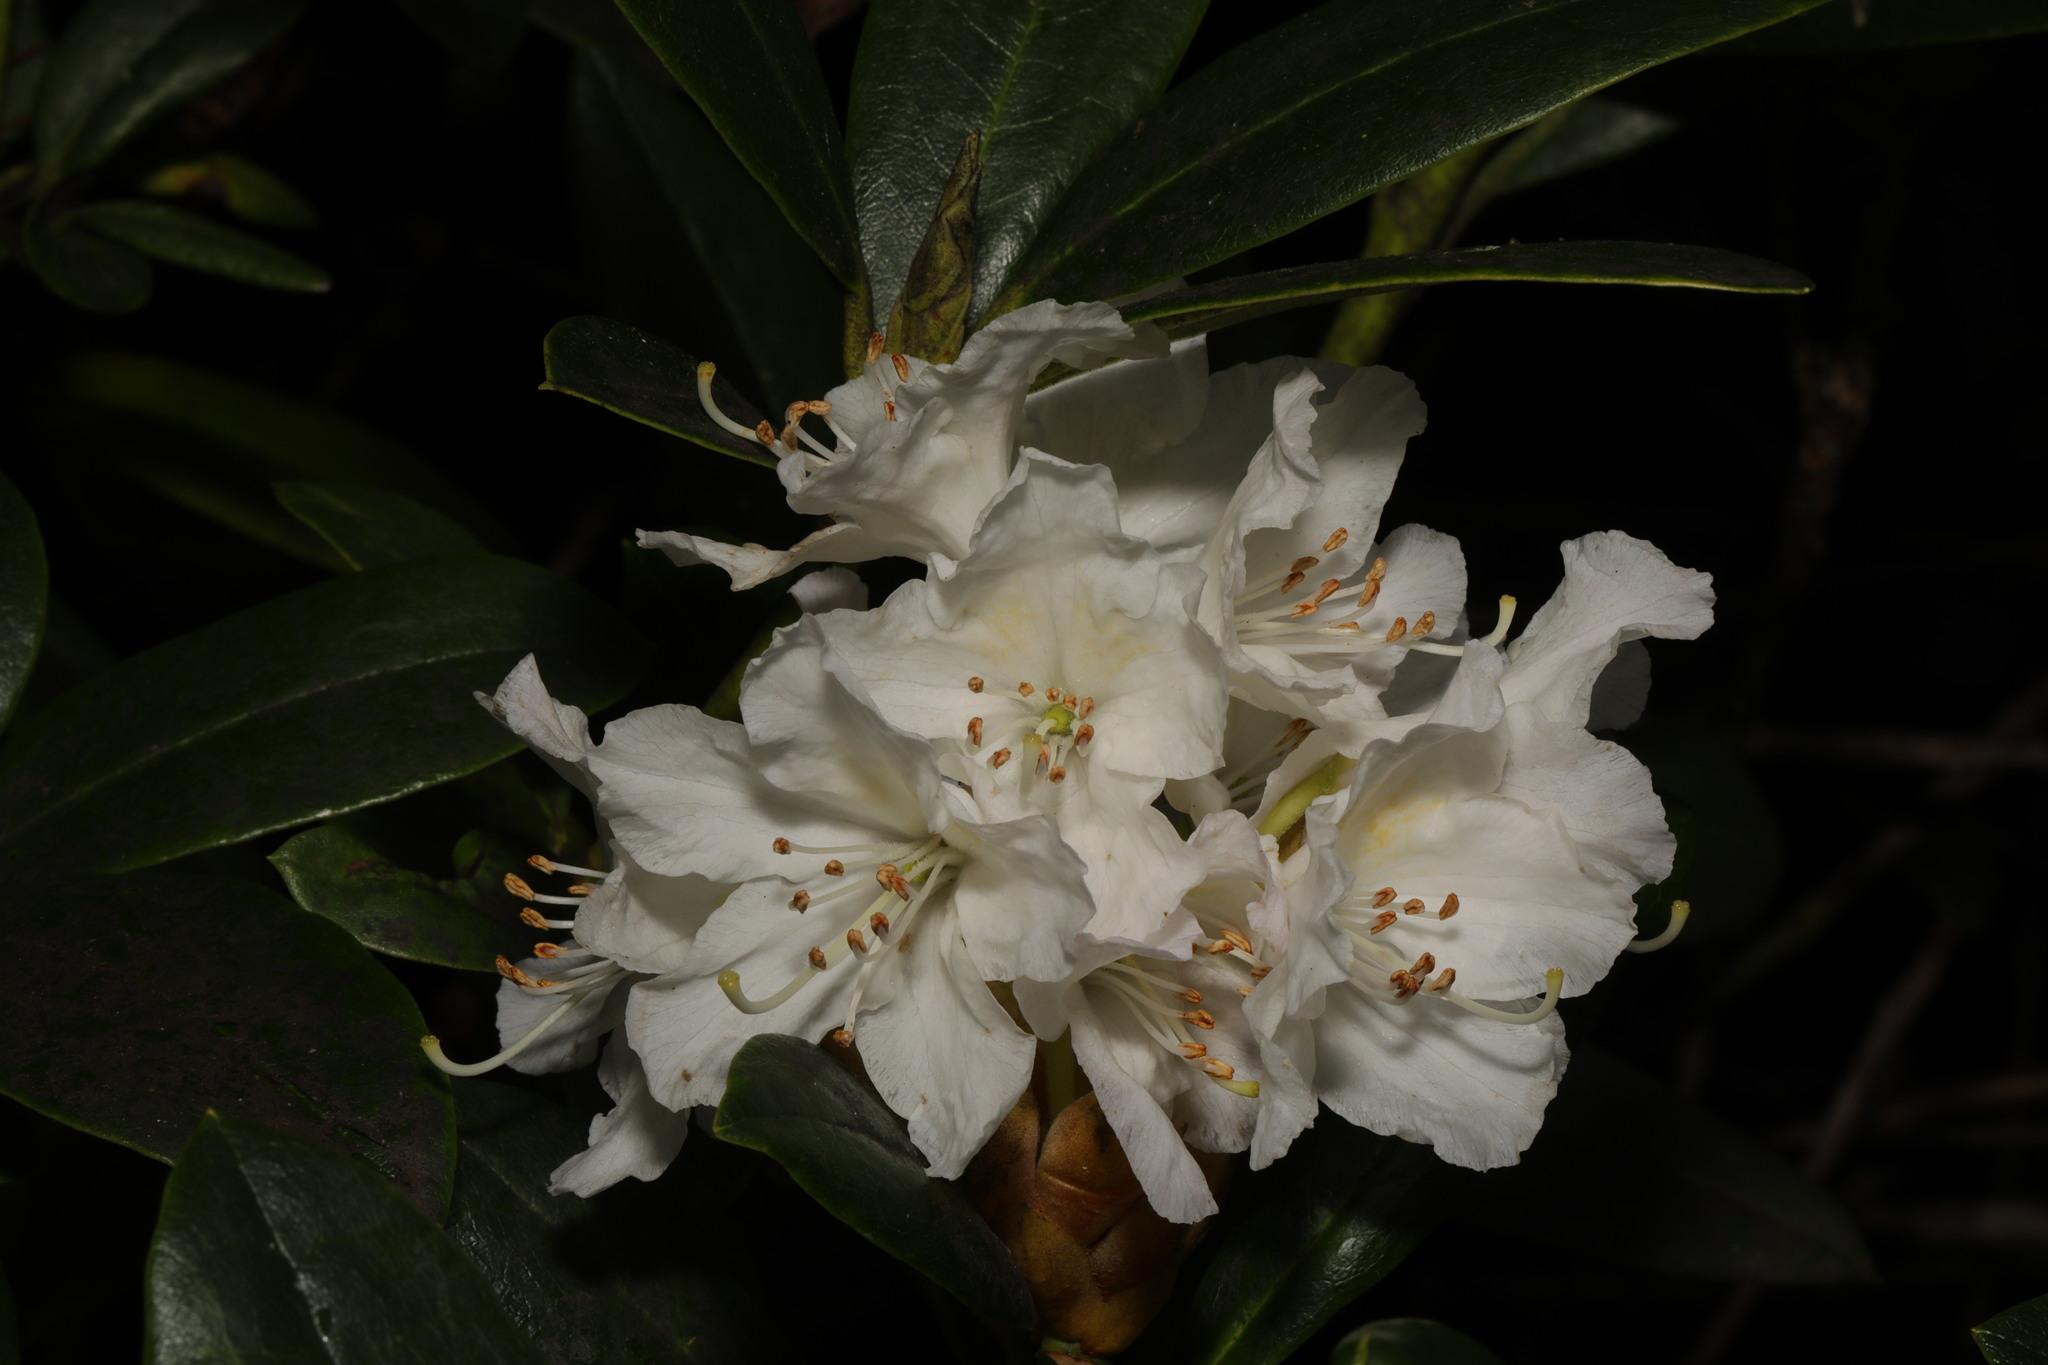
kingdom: Plantae
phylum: Tracheophyta
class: Magnoliopsida
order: Ericales
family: Ericaceae
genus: Rhododendron
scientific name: Rhododendron
